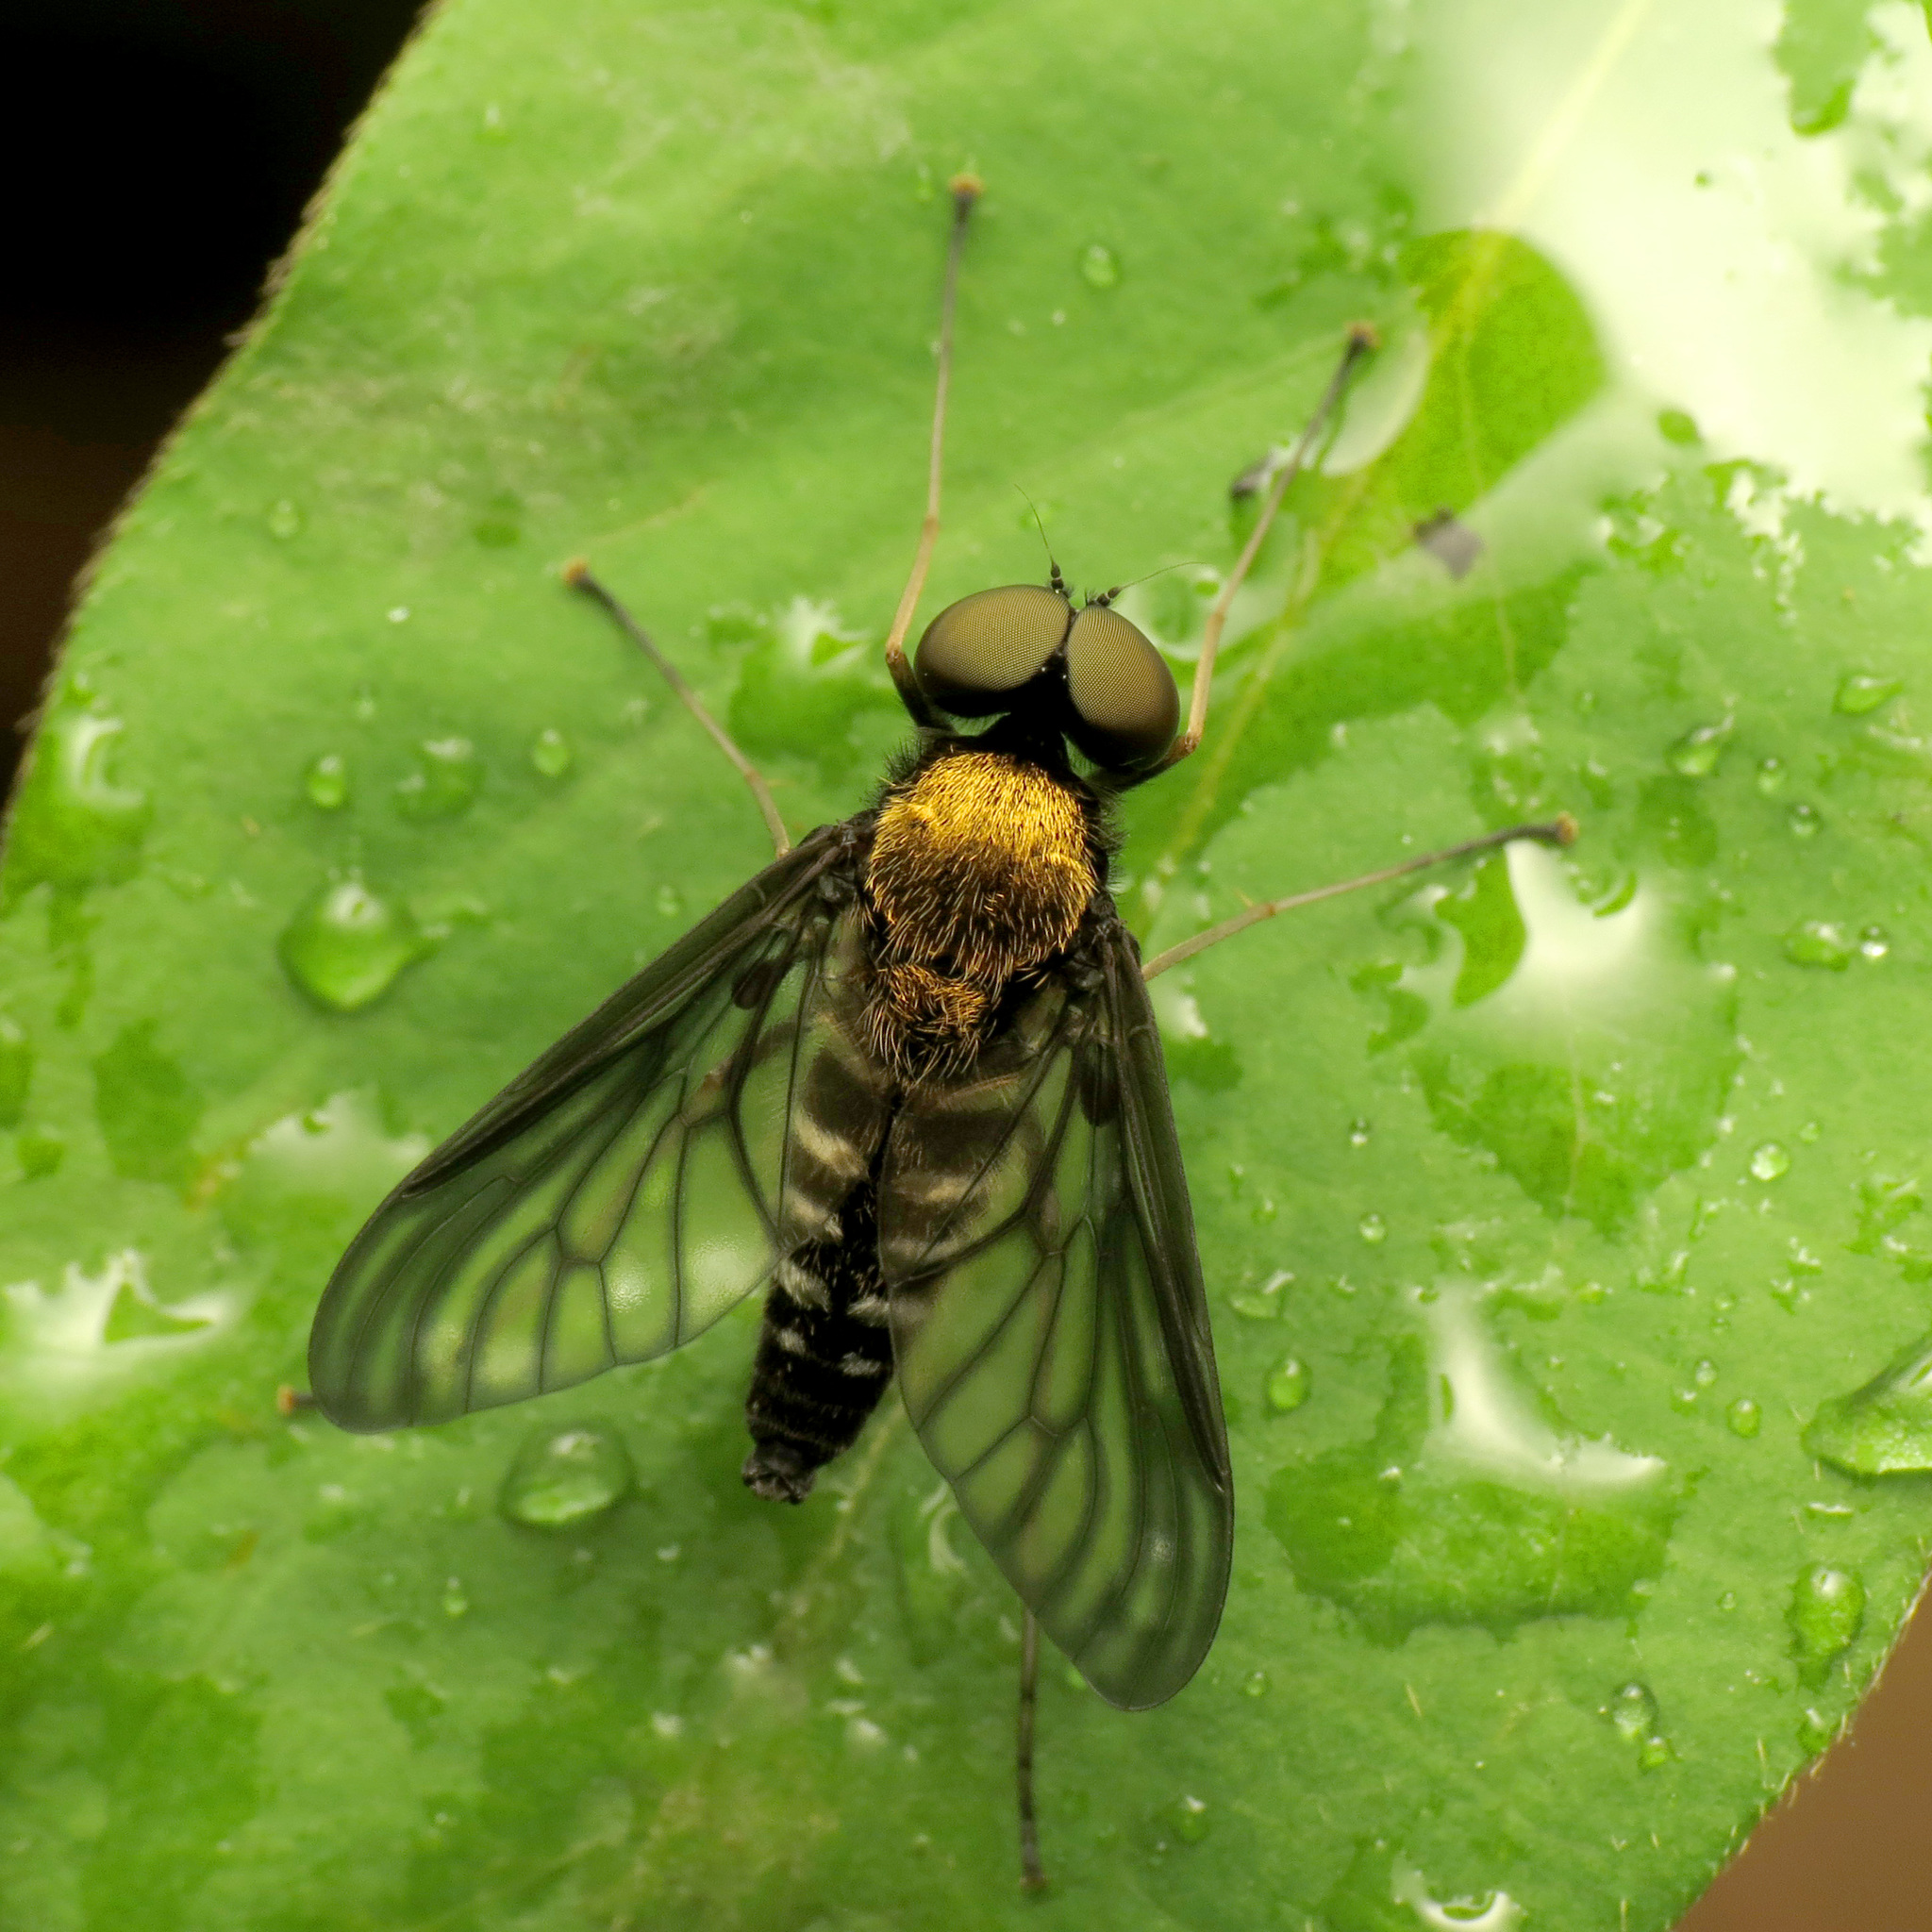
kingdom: Animalia
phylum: Arthropoda
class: Insecta
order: Diptera
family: Rhagionidae
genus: Chrysopilus
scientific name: Chrysopilus thoracicus
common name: Golden-backed snipe fly
